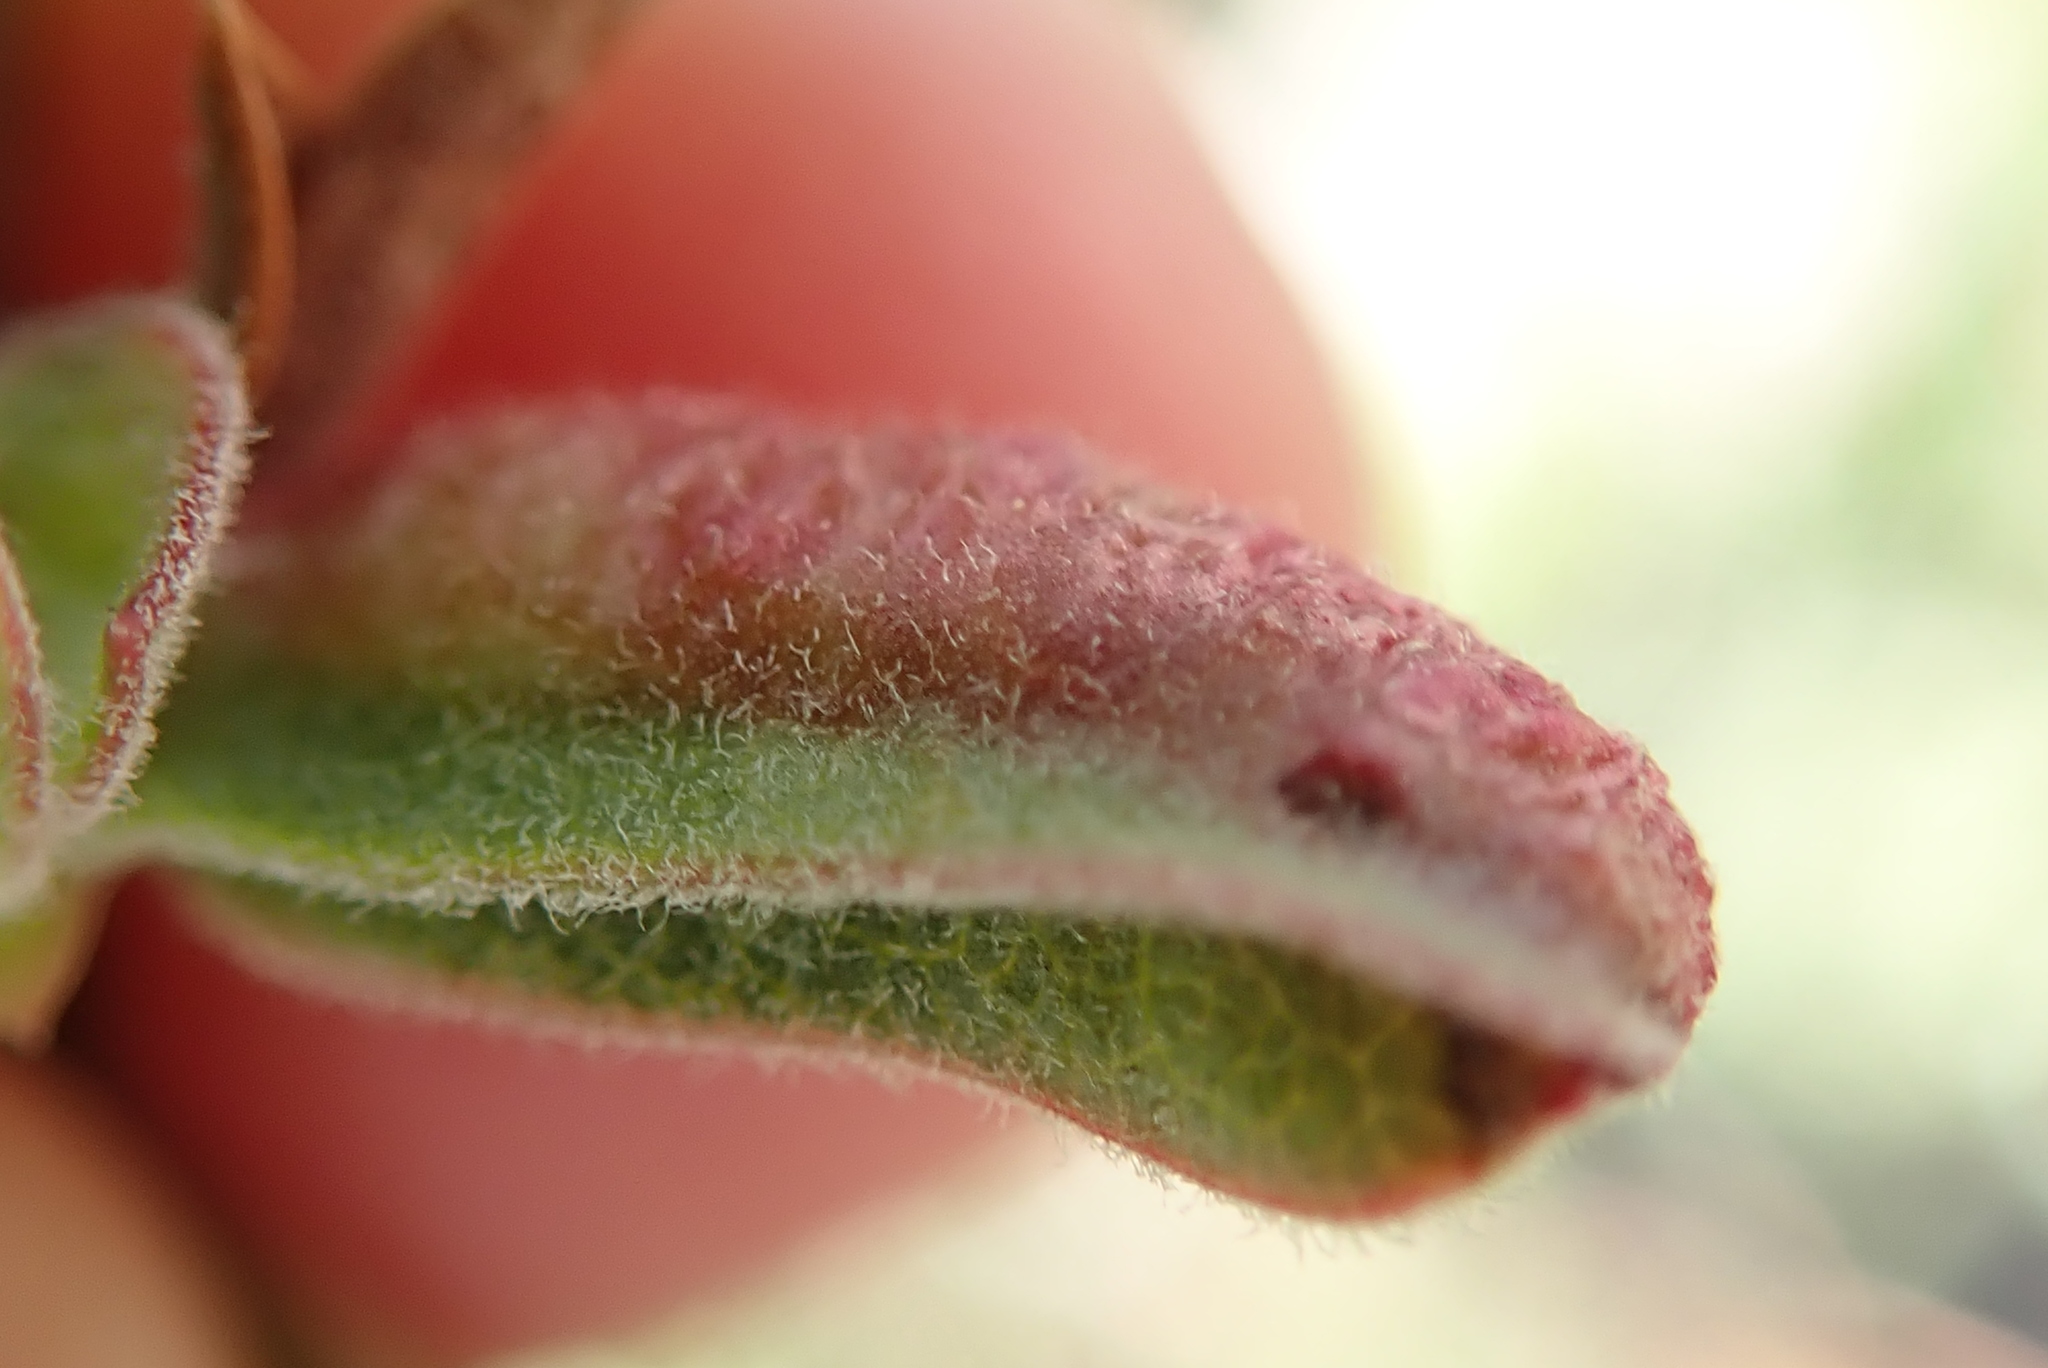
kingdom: Animalia
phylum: Arthropoda
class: Insecta
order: Hemiptera
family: Aphididae
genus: Tamalia
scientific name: Tamalia coweni
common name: Manzanita leafgall aphid
